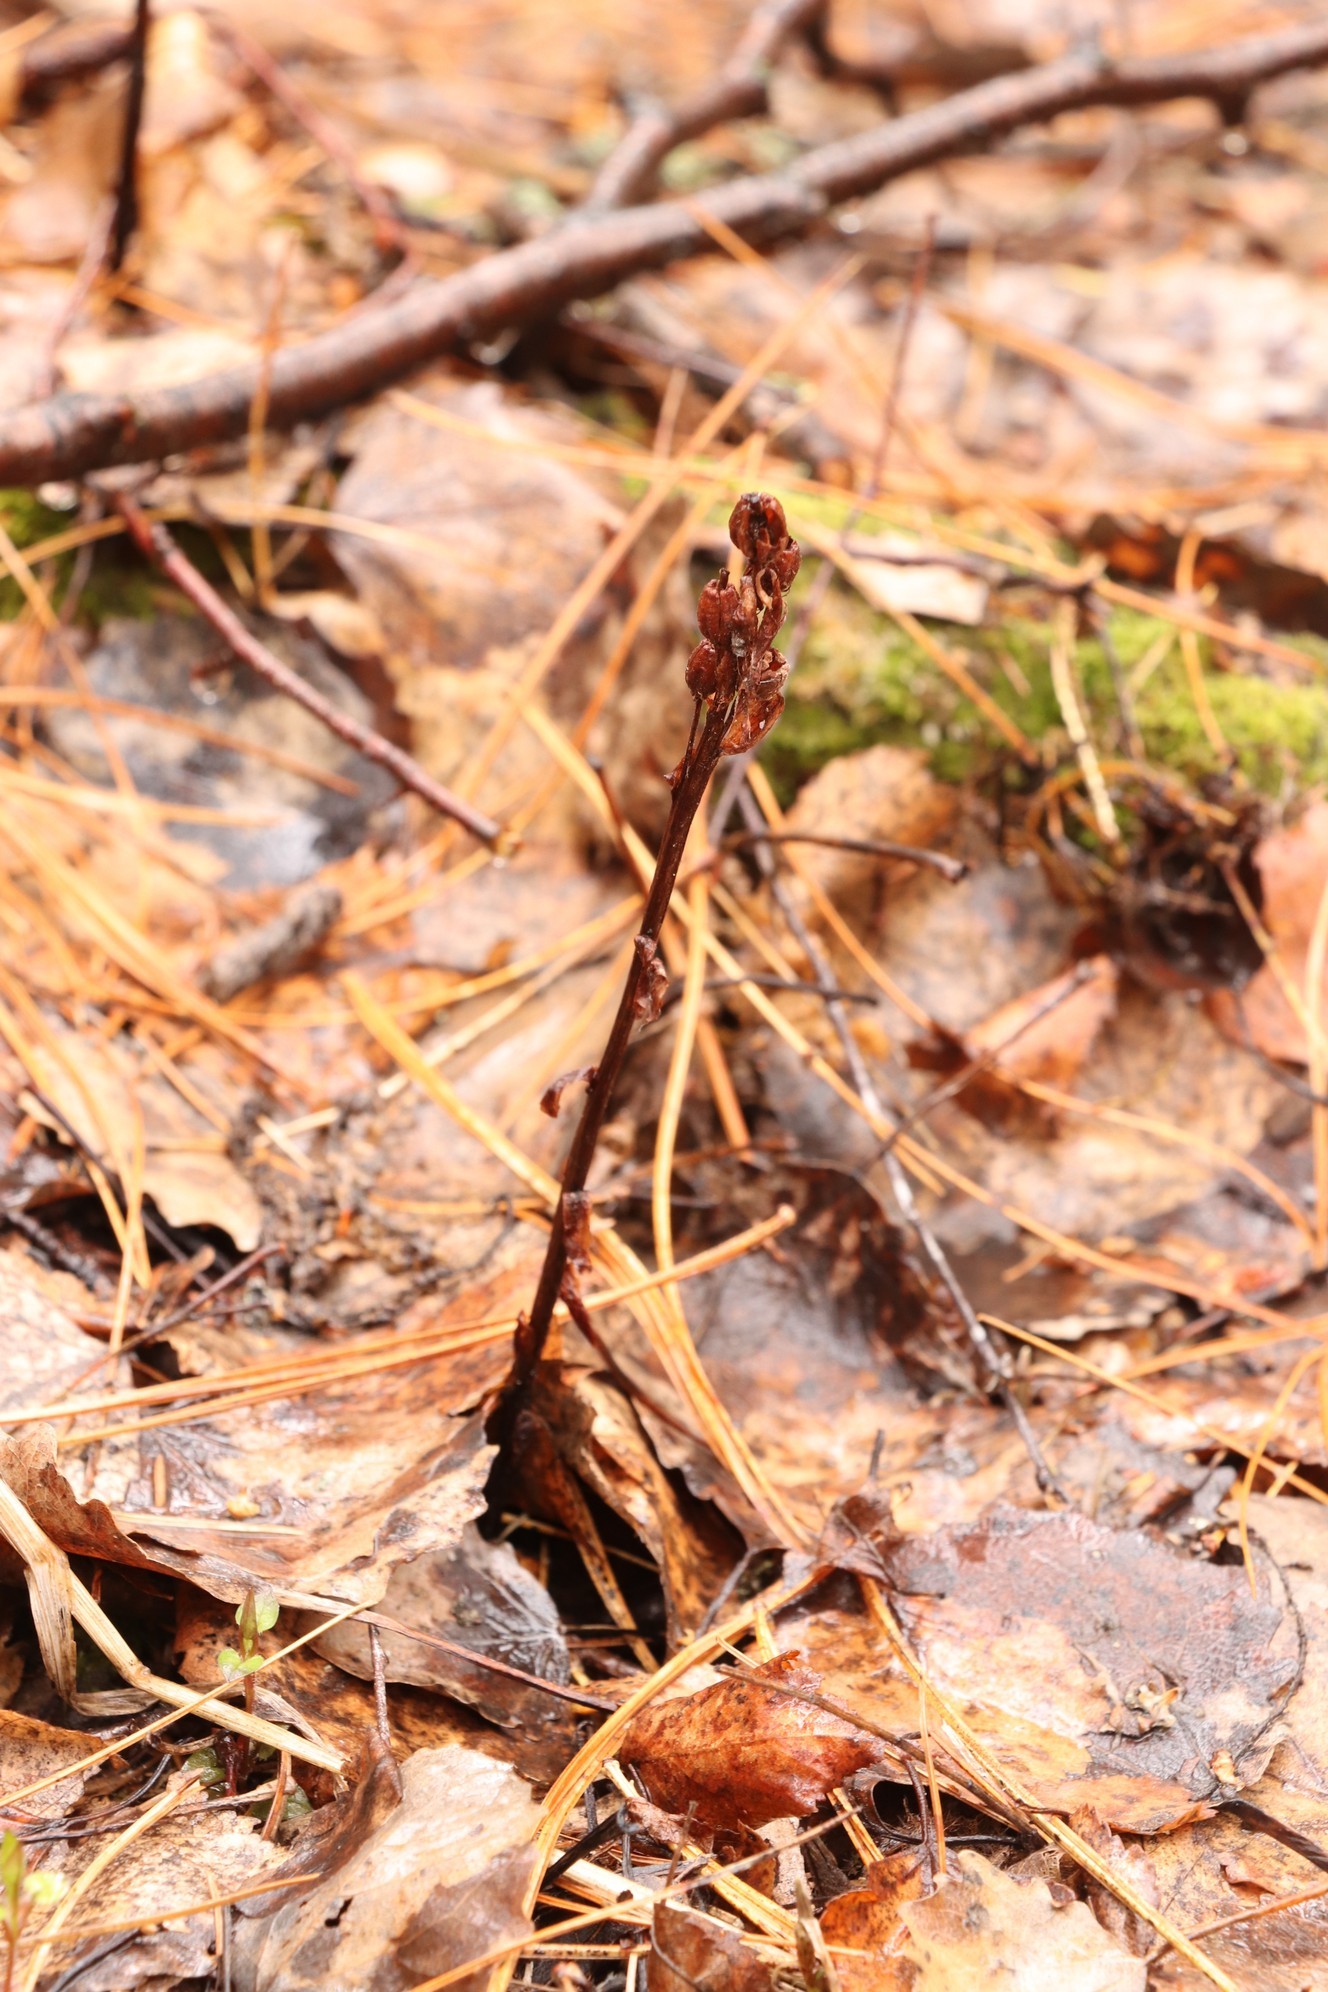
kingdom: Plantae
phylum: Tracheophyta
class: Magnoliopsida
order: Ericales
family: Ericaceae
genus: Hypopitys
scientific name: Hypopitys monotropa
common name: Yellow bird's-nest
